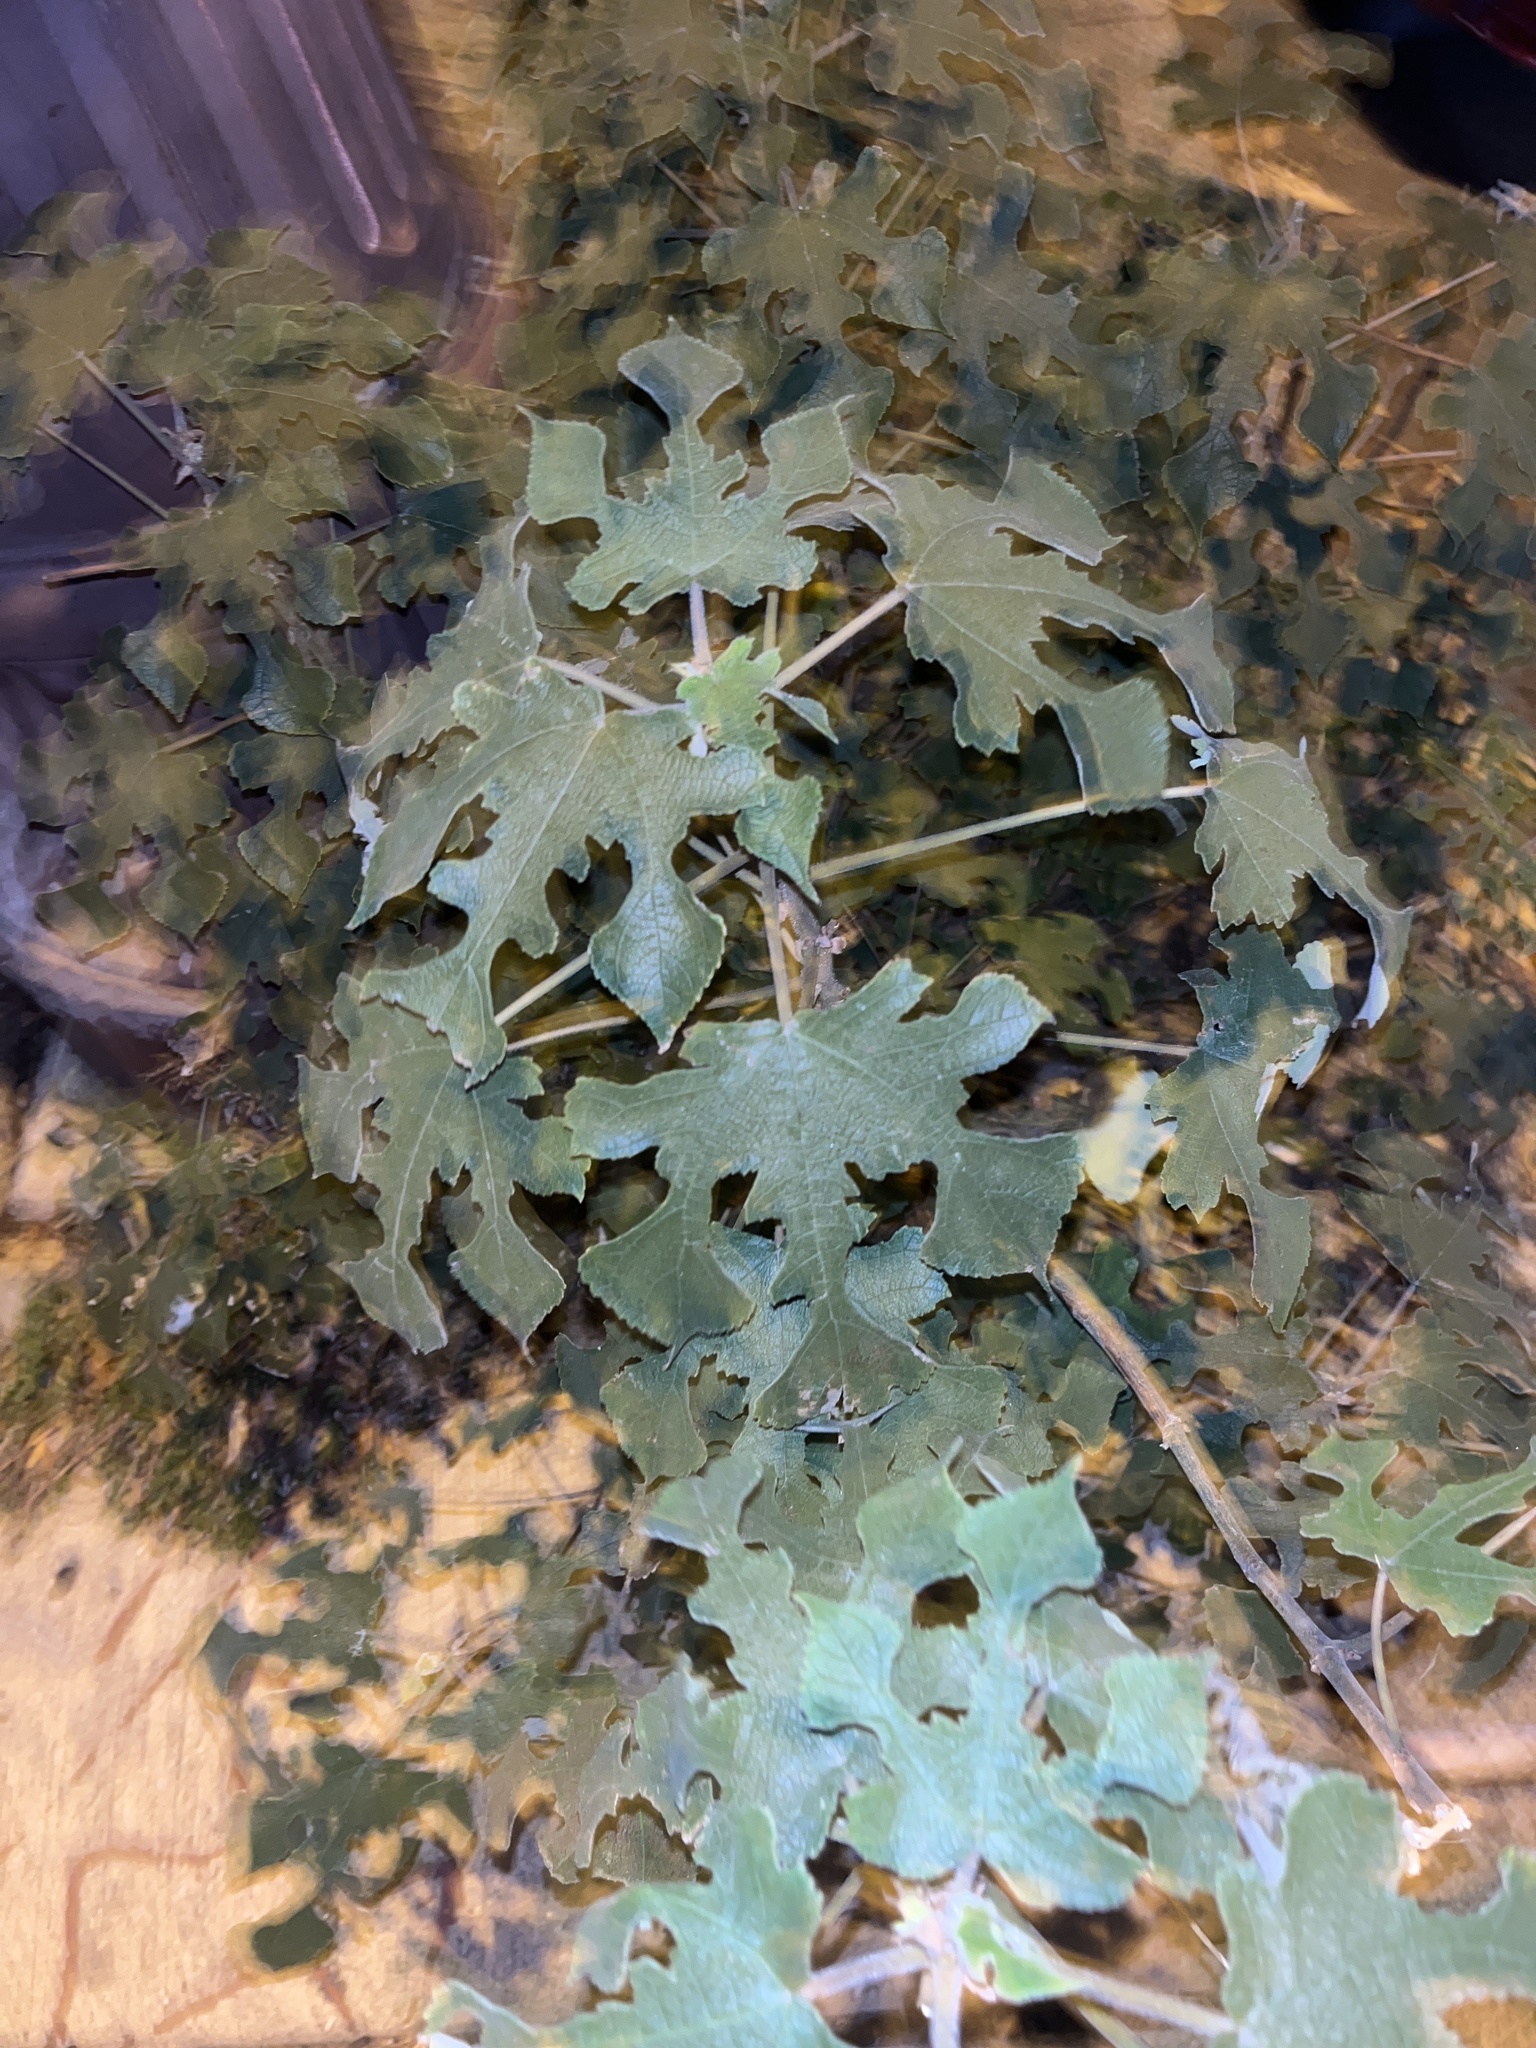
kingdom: Plantae
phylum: Tracheophyta
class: Magnoliopsida
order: Rosales
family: Moraceae
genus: Broussonetia
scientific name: Broussonetia papyrifera
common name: Paper mulberry
